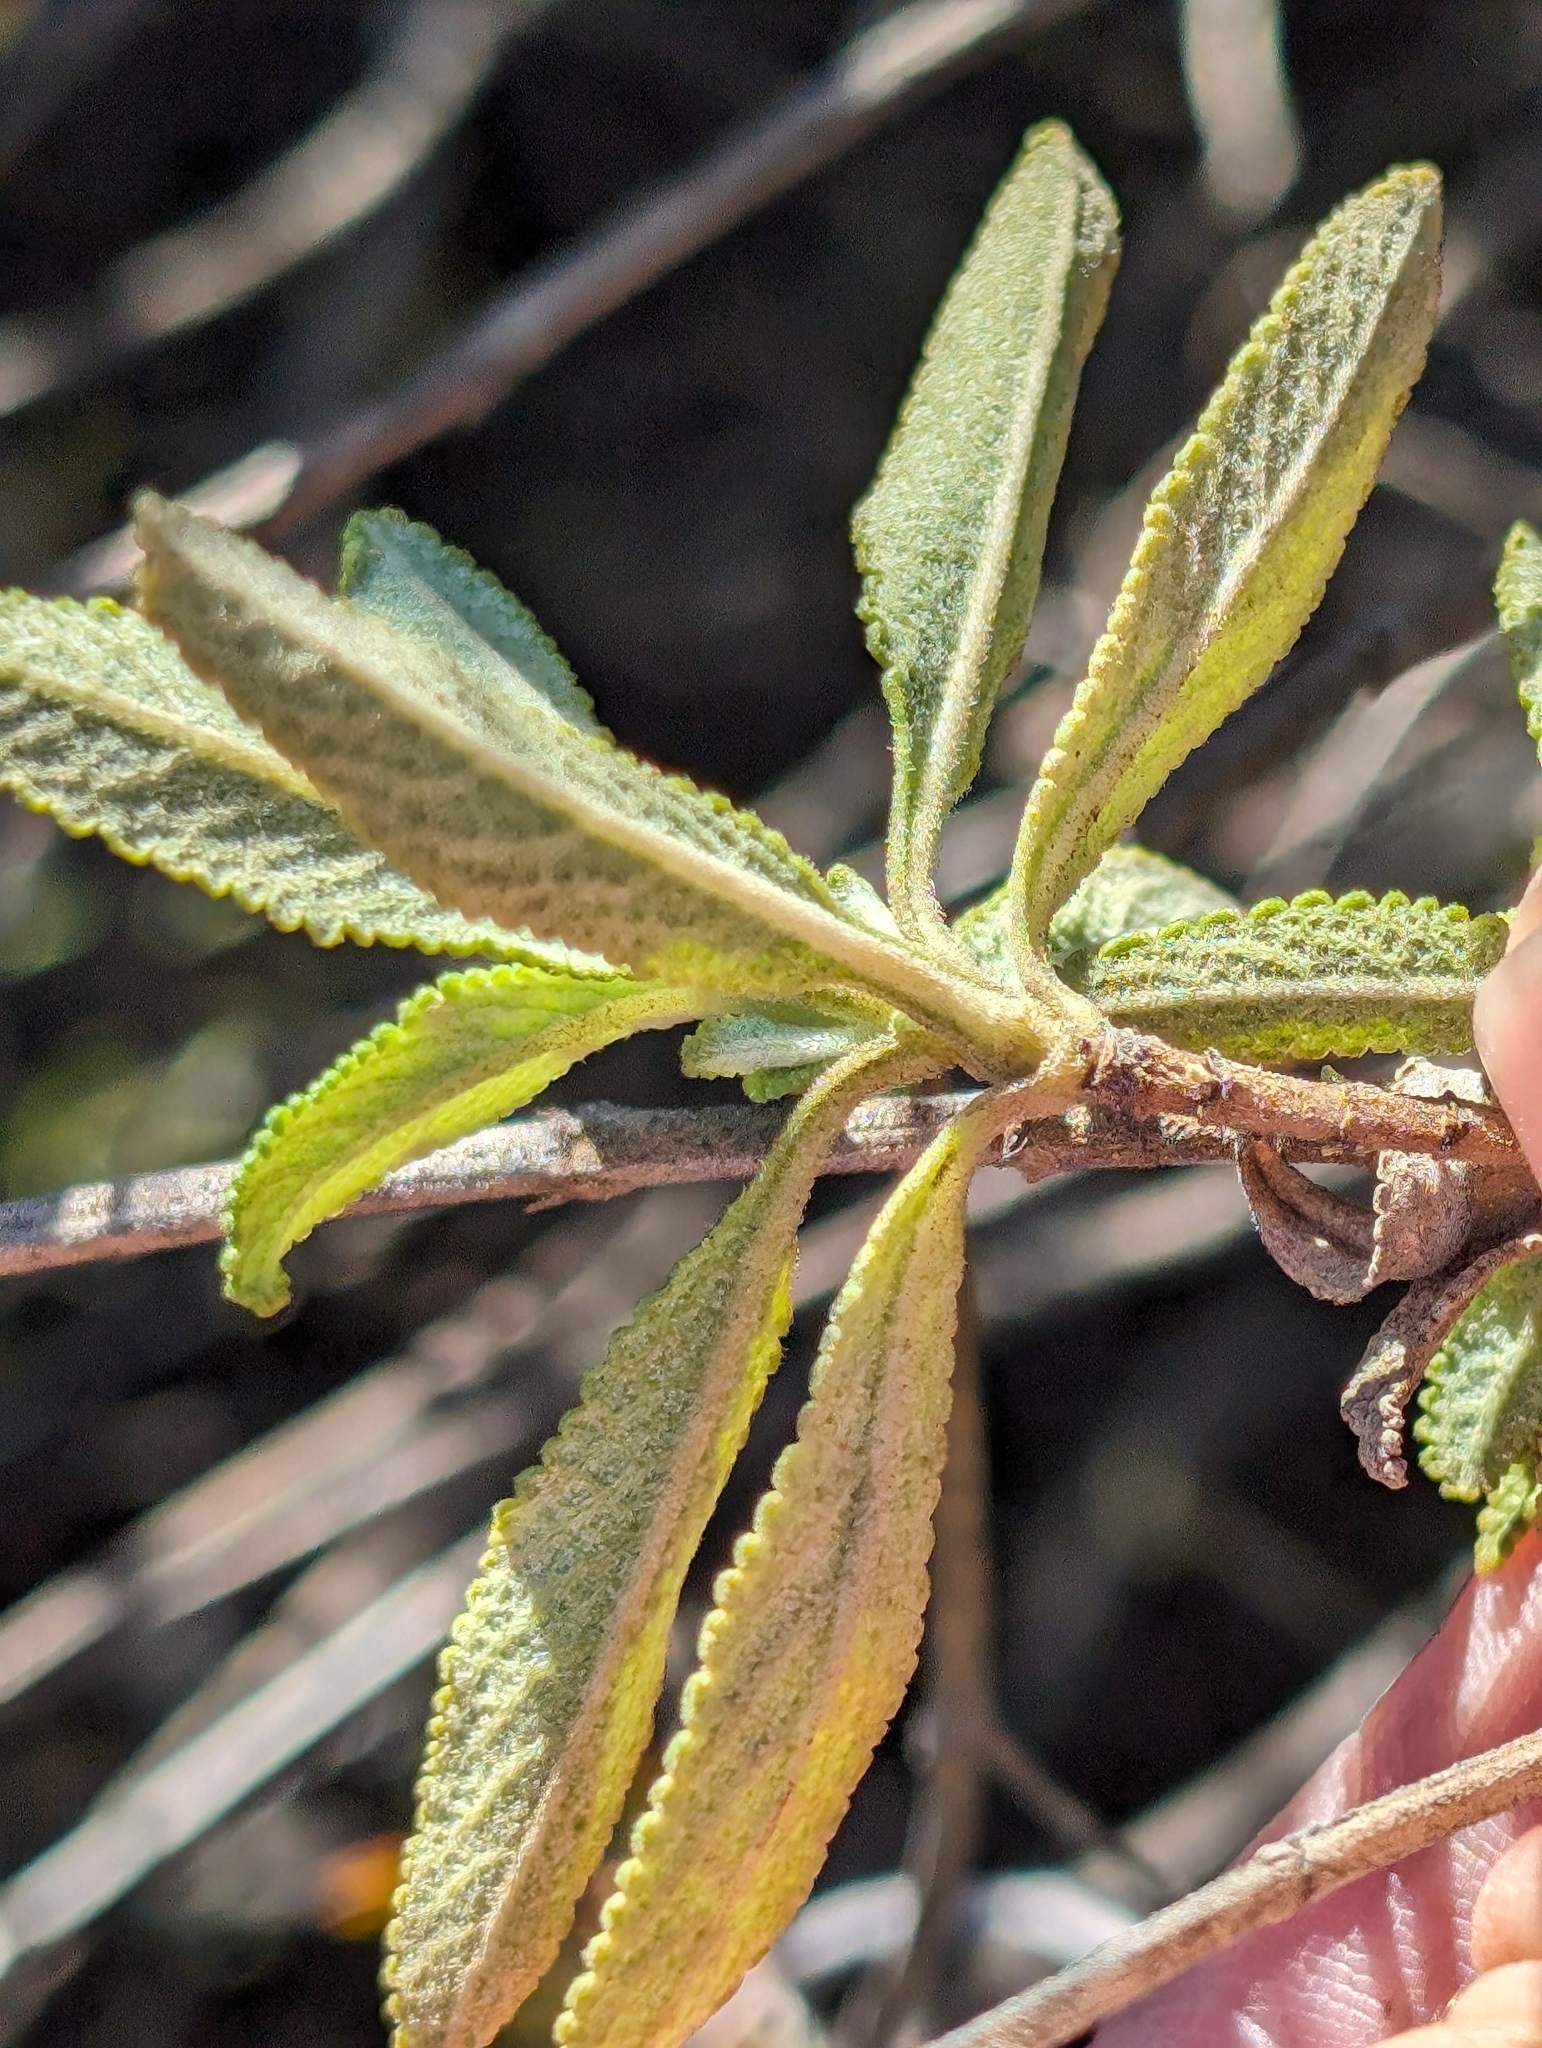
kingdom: Plantae
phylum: Tracheophyta
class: Magnoliopsida
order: Lamiales
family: Lamiaceae
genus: Salvia
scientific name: Salvia mellifera
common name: Black sage
